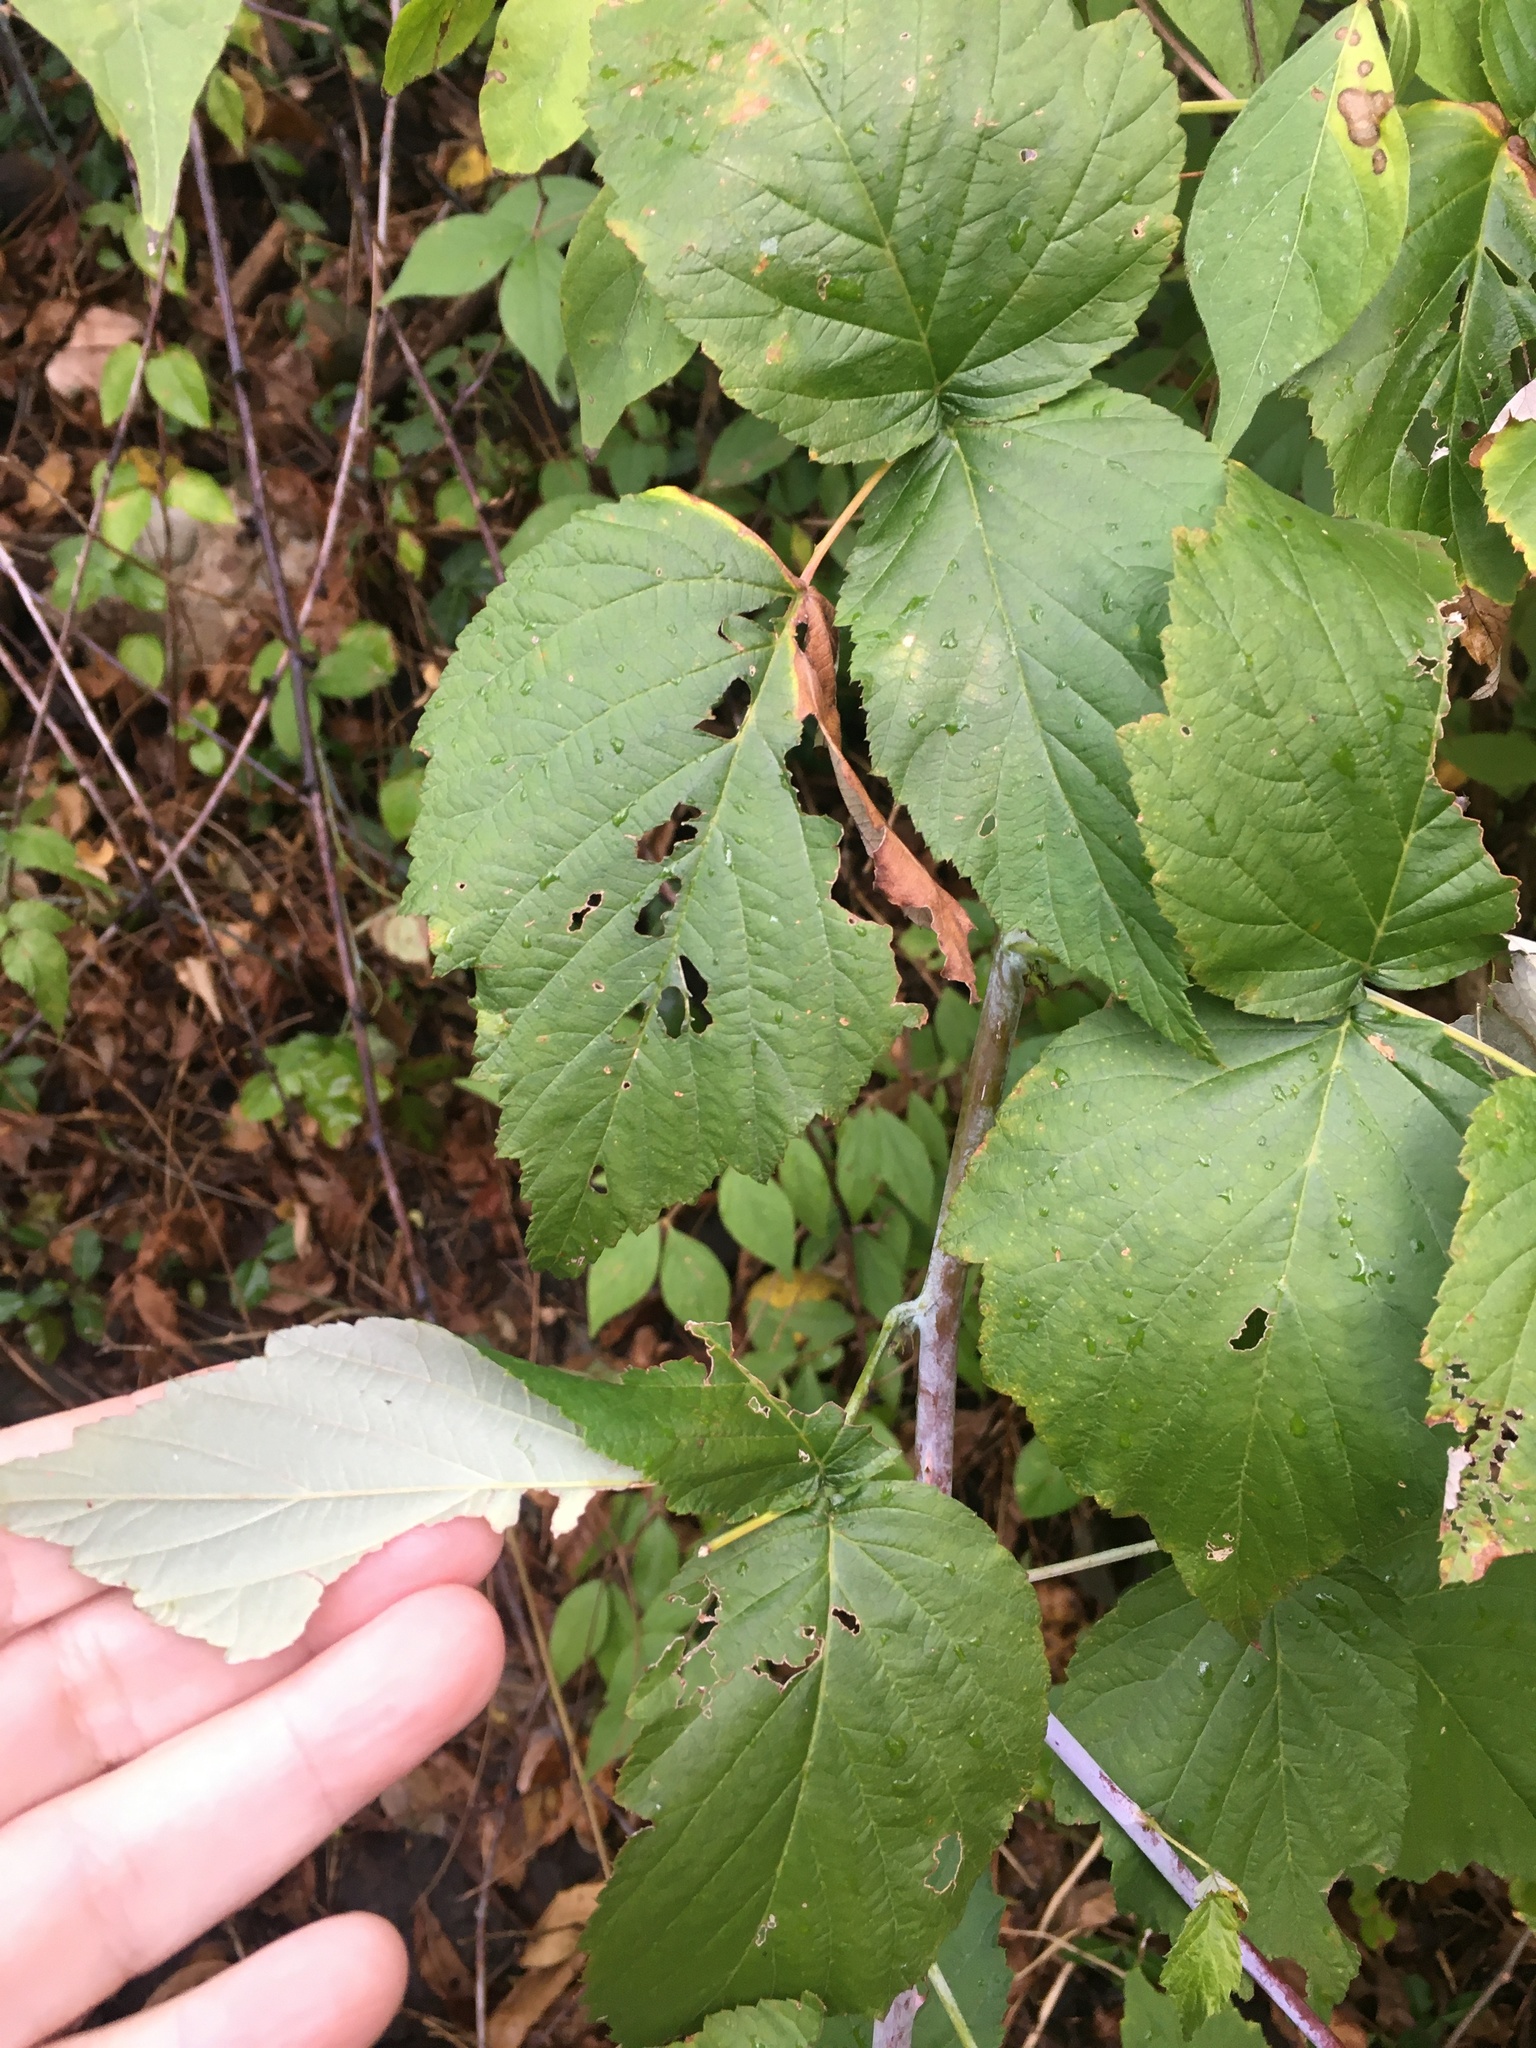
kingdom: Plantae
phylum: Tracheophyta
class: Magnoliopsida
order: Rosales
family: Rosaceae
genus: Rubus
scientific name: Rubus occidentalis
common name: Black raspberry
